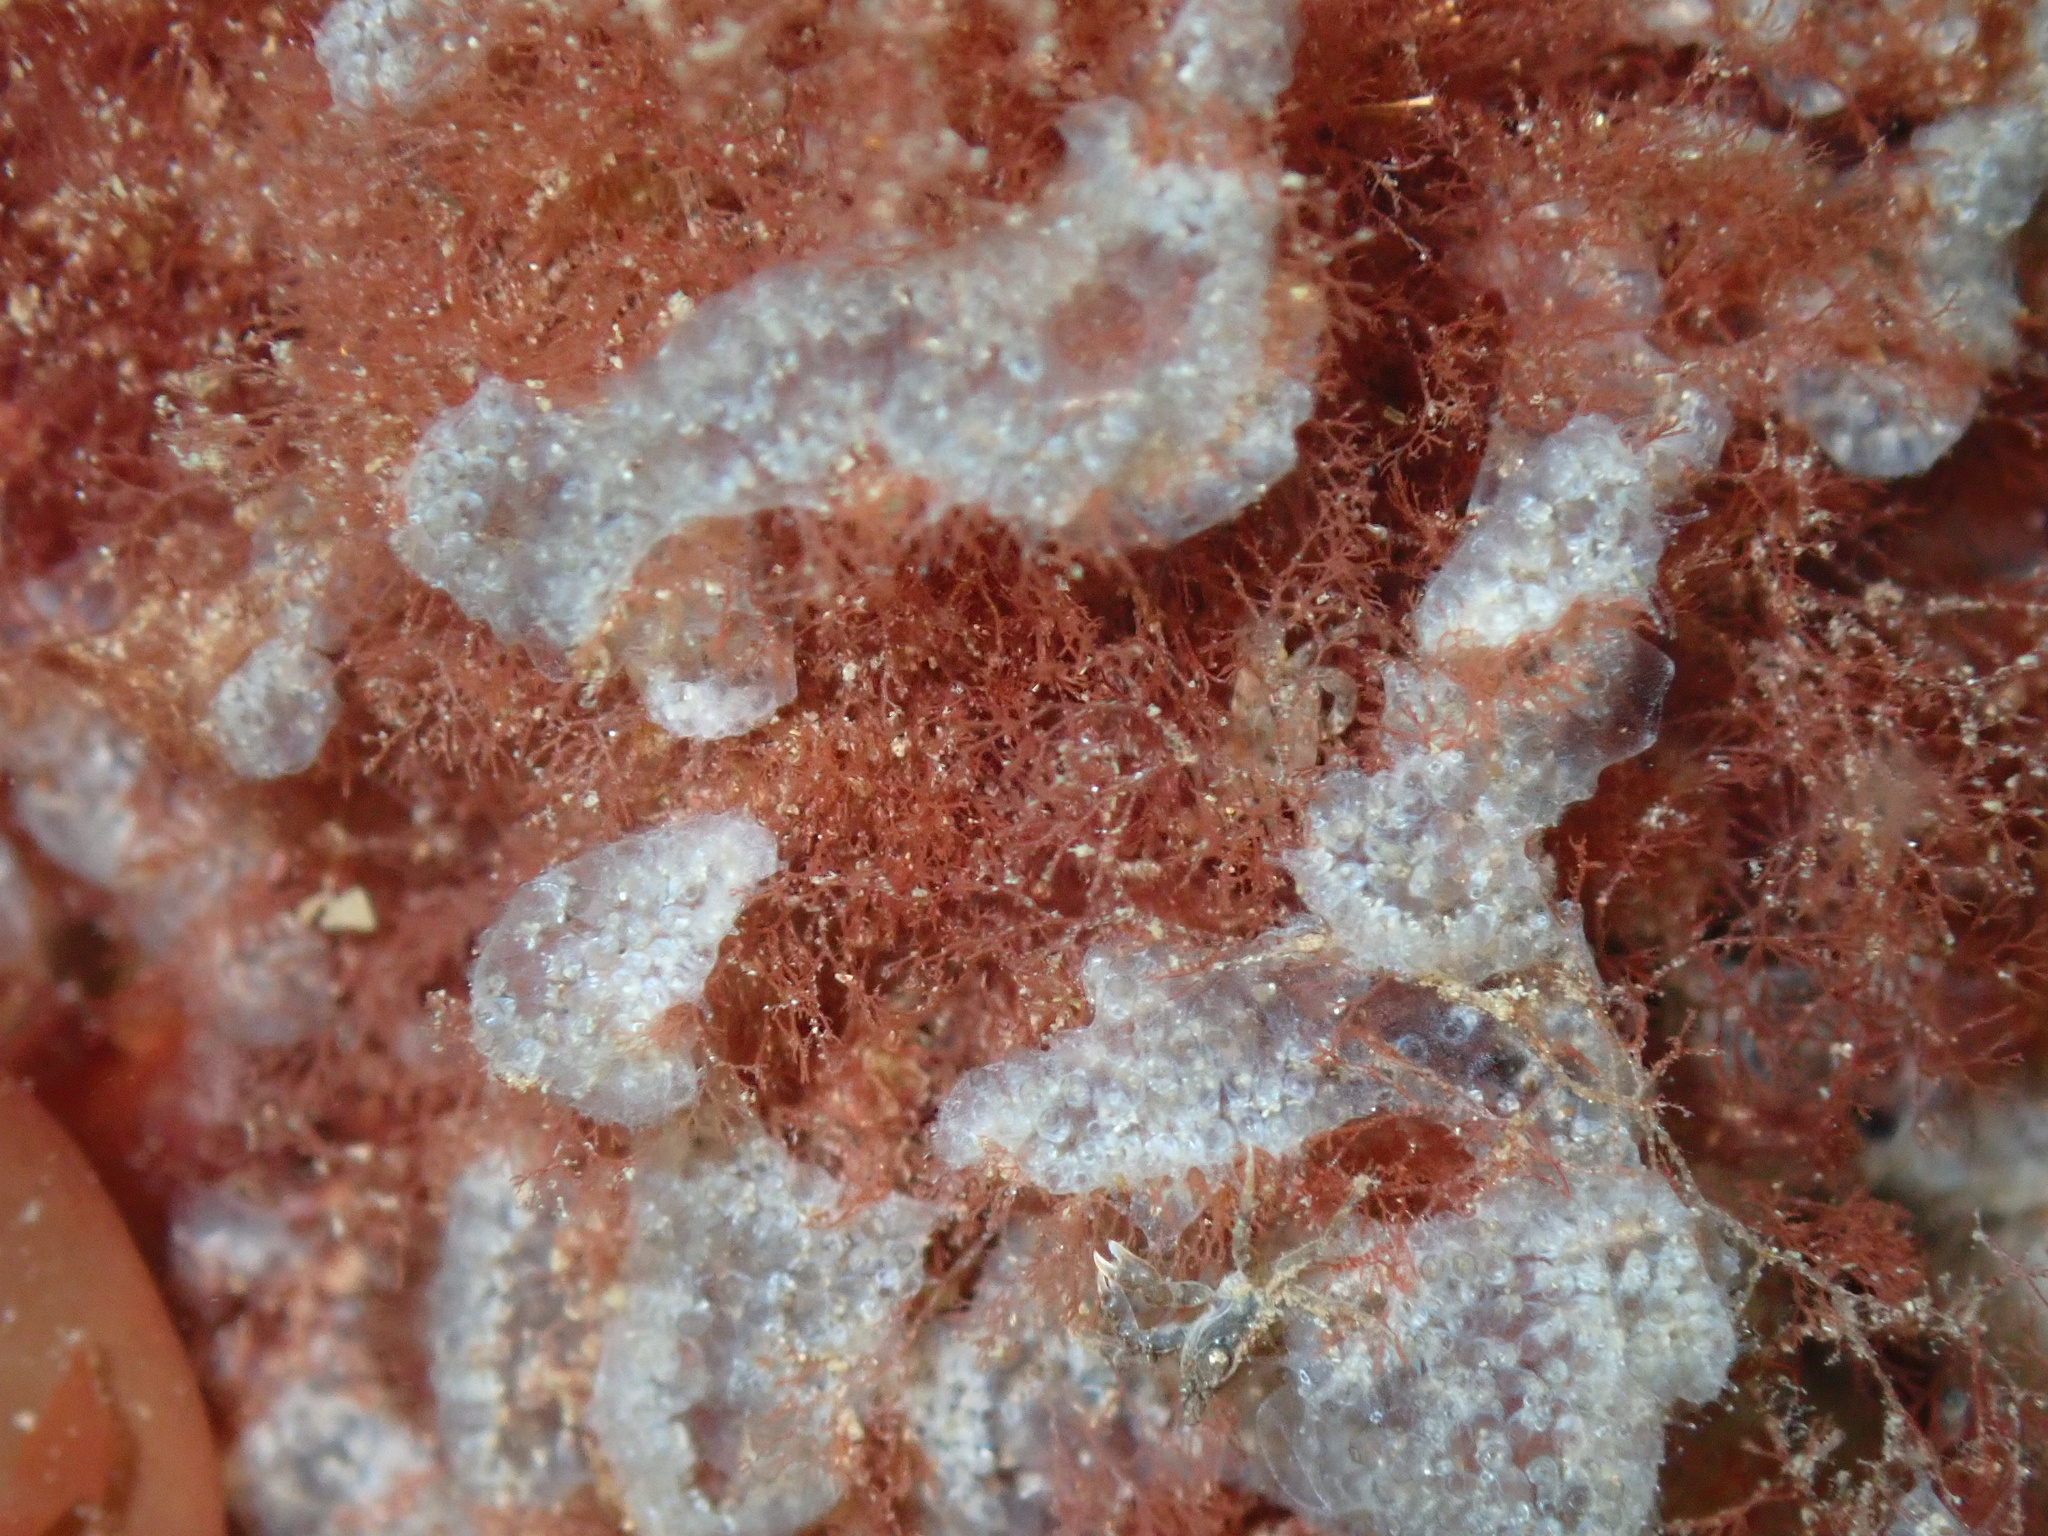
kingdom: Animalia
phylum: Chordata
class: Ascidiacea
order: Aplousobranchia
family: Didemnidae
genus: Diplosoma
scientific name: Diplosoma listerianum
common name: Compound sea squirt
